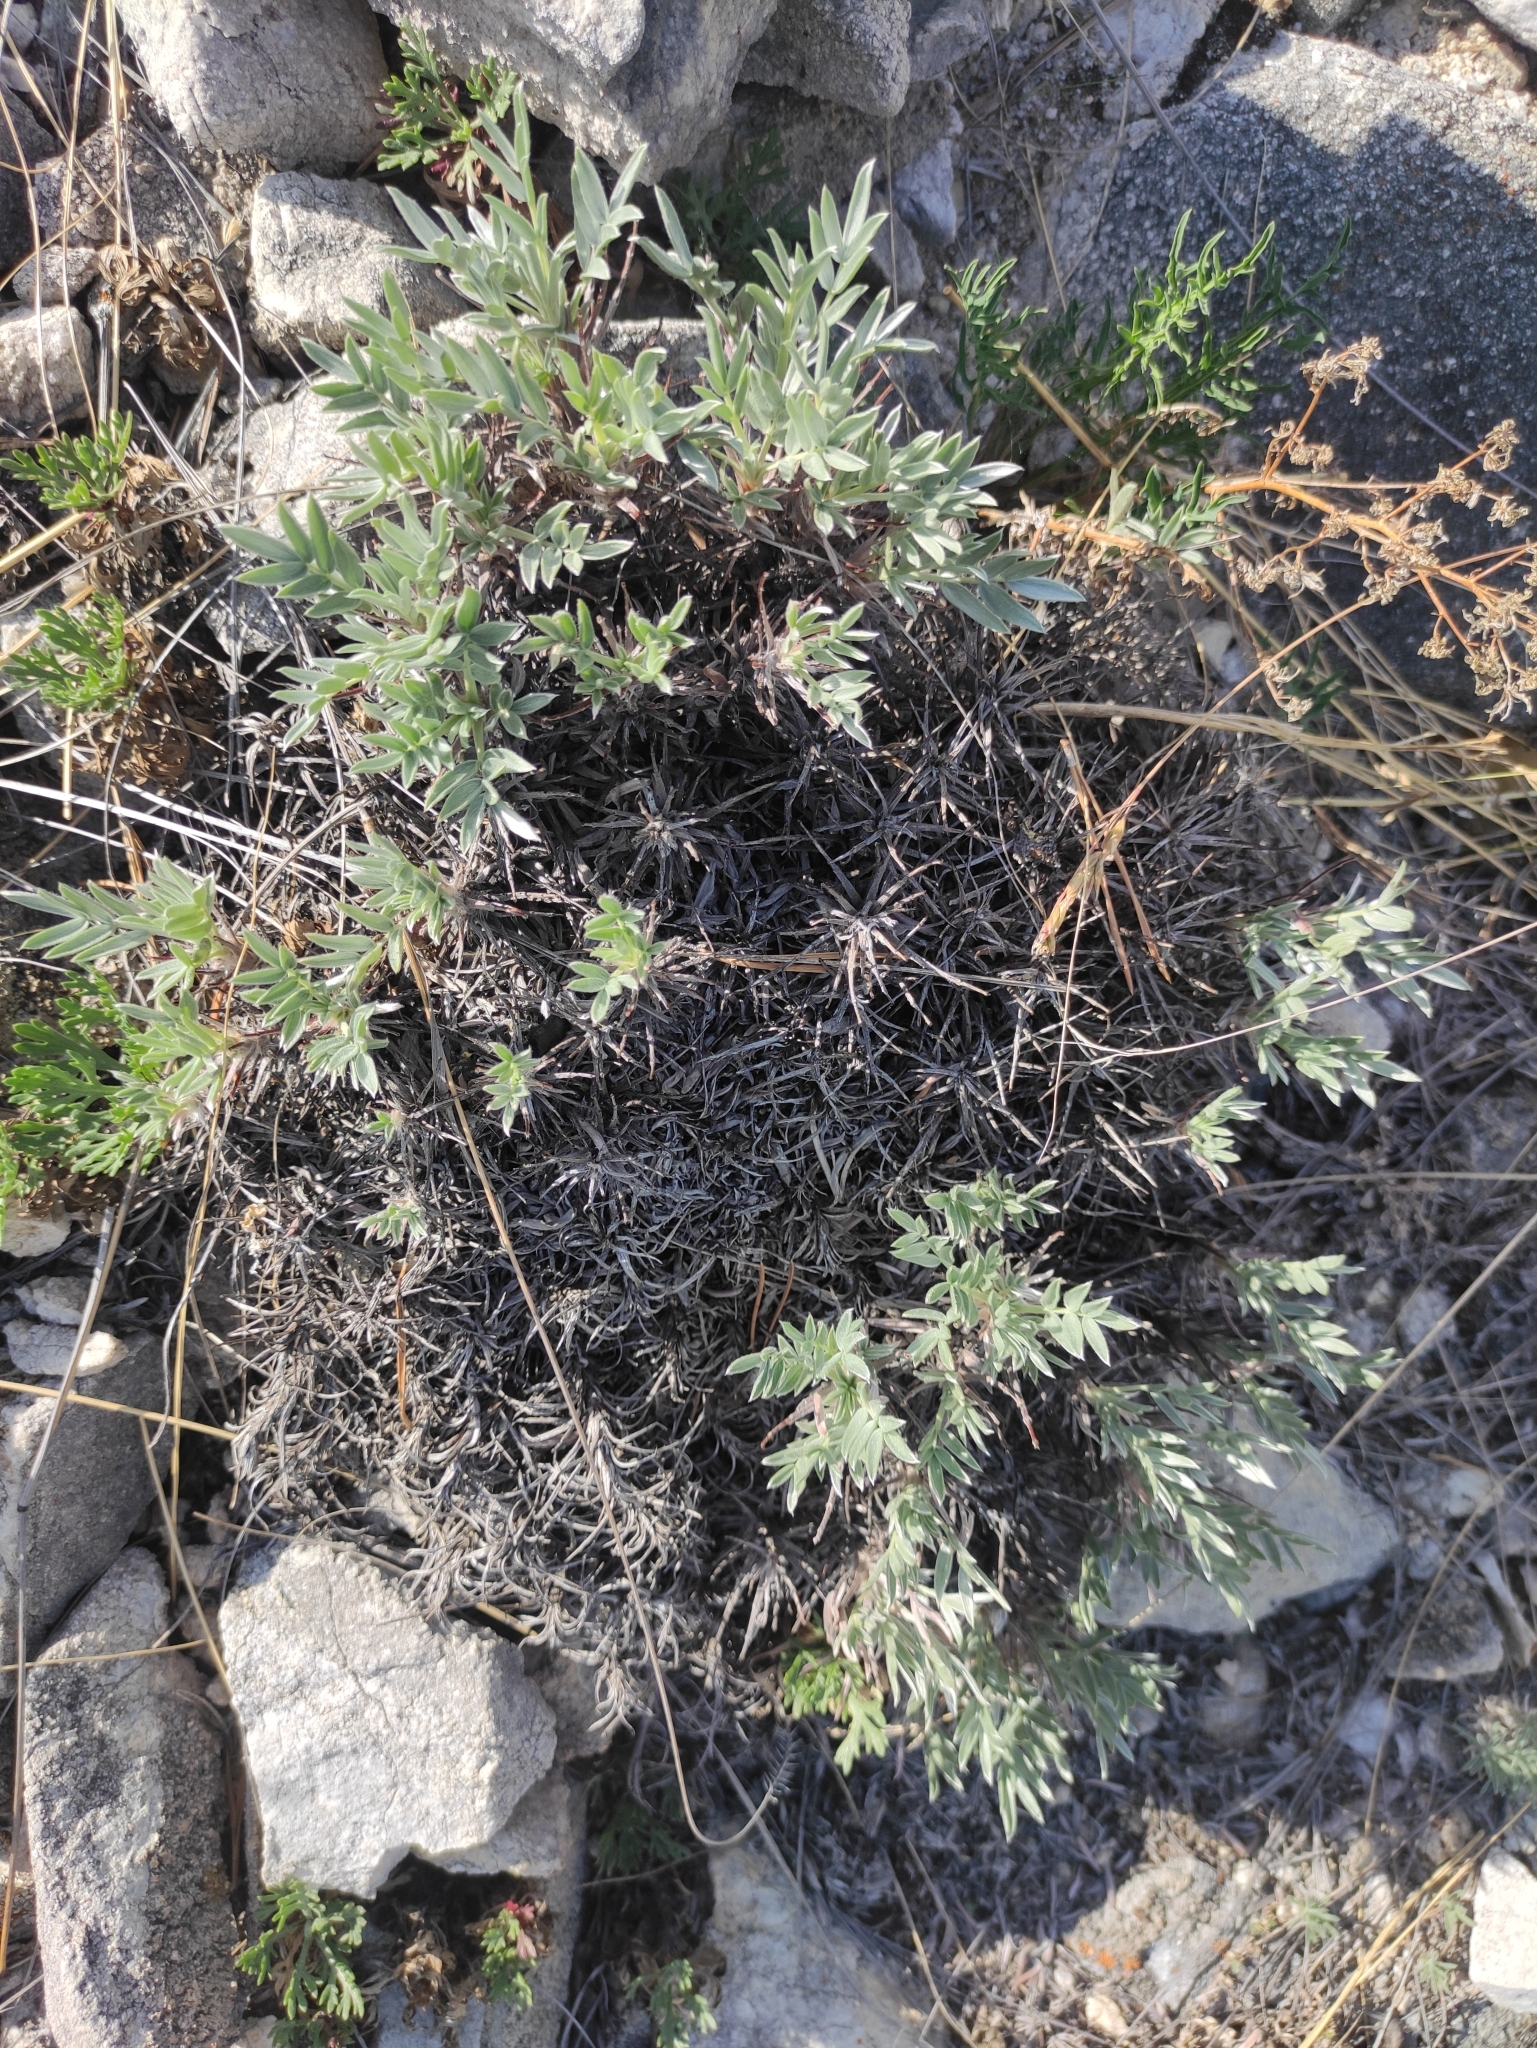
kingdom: Plantae
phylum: Tracheophyta
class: Magnoliopsida
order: Fabales
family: Fabaceae
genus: Oxytropis
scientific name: Oxytropis tragacanthoides
